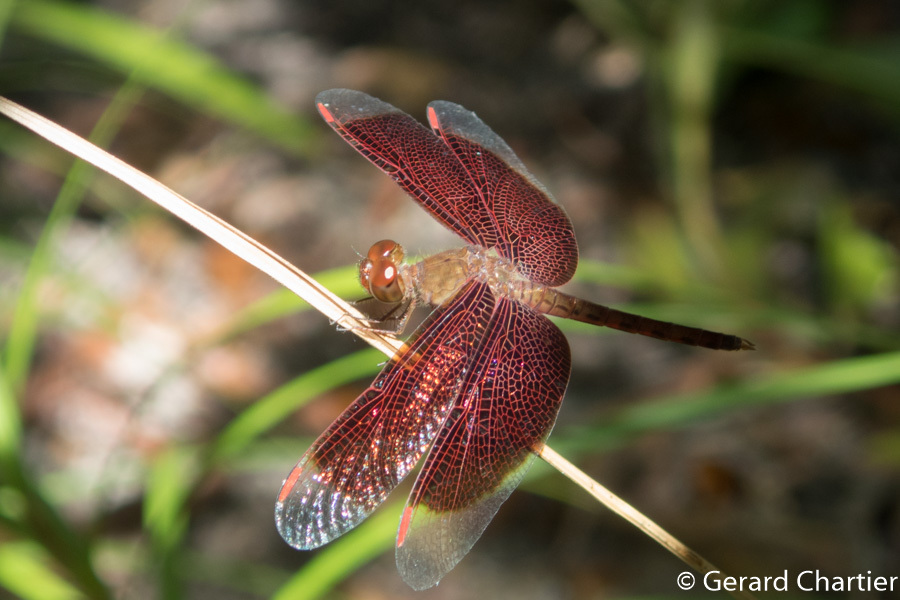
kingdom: Animalia
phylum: Arthropoda
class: Insecta
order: Odonata
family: Libellulidae
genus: Neurothemis
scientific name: Neurothemis fluctuans
